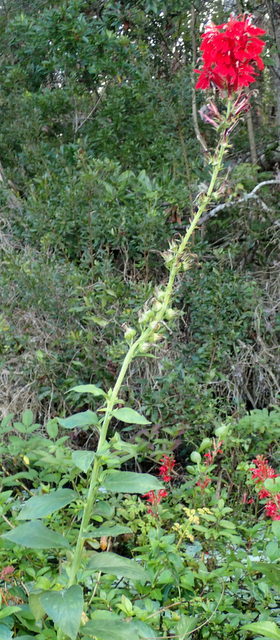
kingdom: Plantae
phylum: Tracheophyta
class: Magnoliopsida
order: Asterales
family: Campanulaceae
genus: Lobelia
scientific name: Lobelia cardinalis
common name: Cardinal flower
